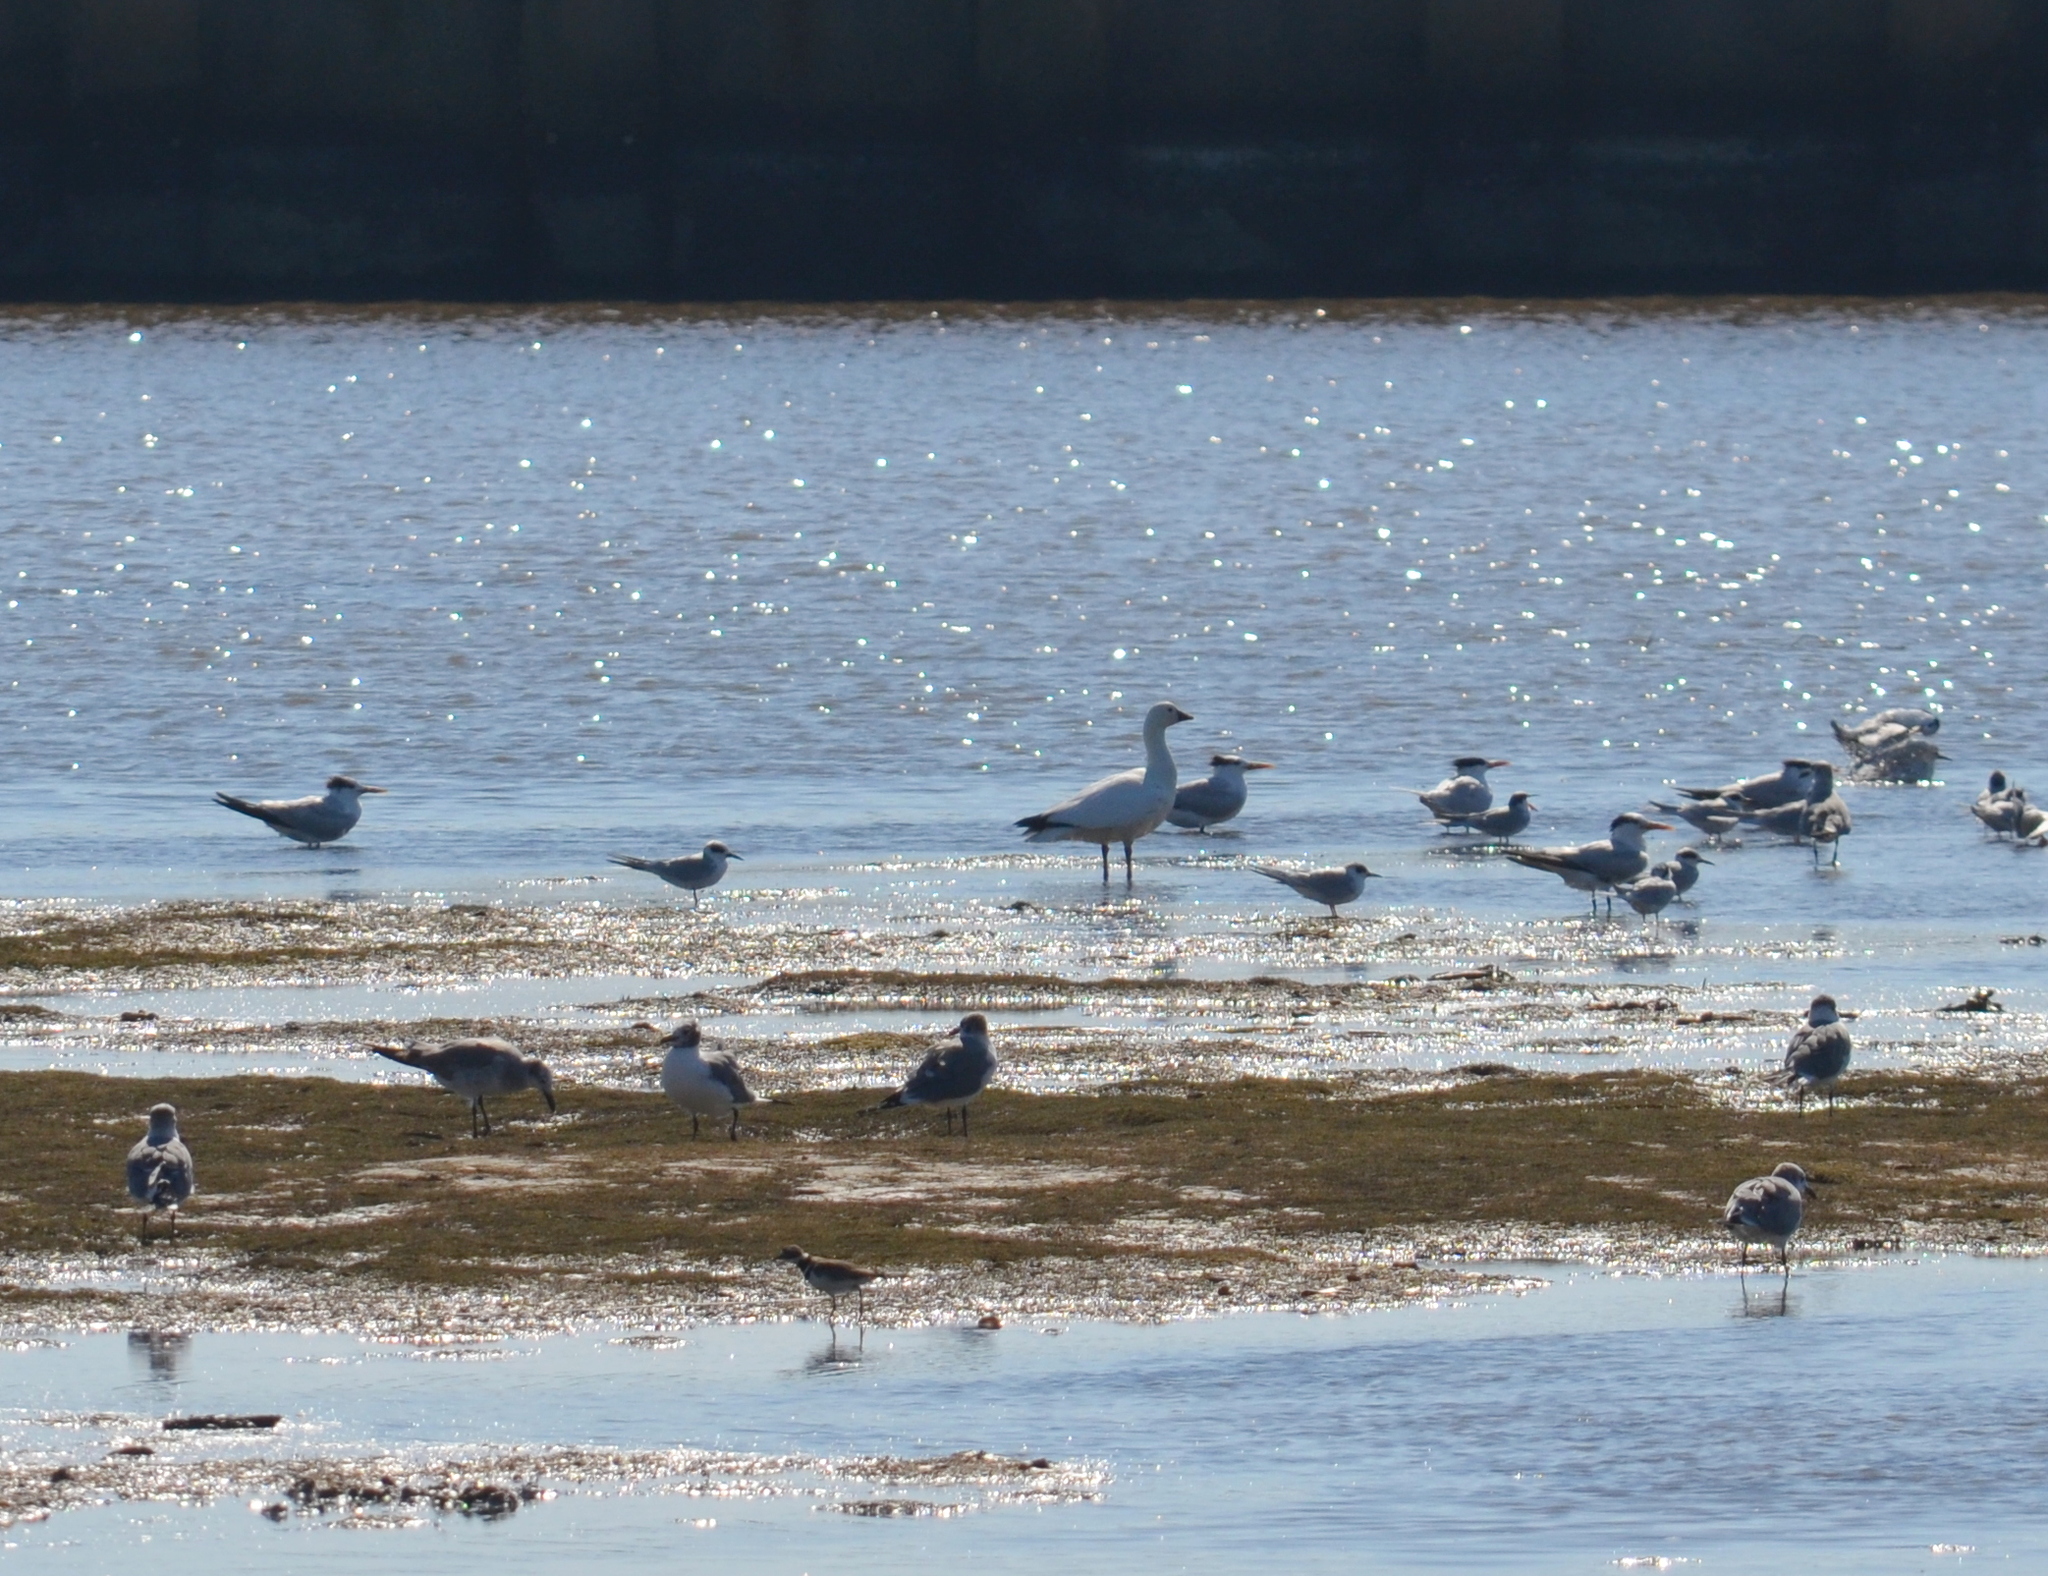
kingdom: Animalia
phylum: Chordata
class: Aves
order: Anseriformes
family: Anatidae
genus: Anser
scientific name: Anser rossii
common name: Ross's goose
